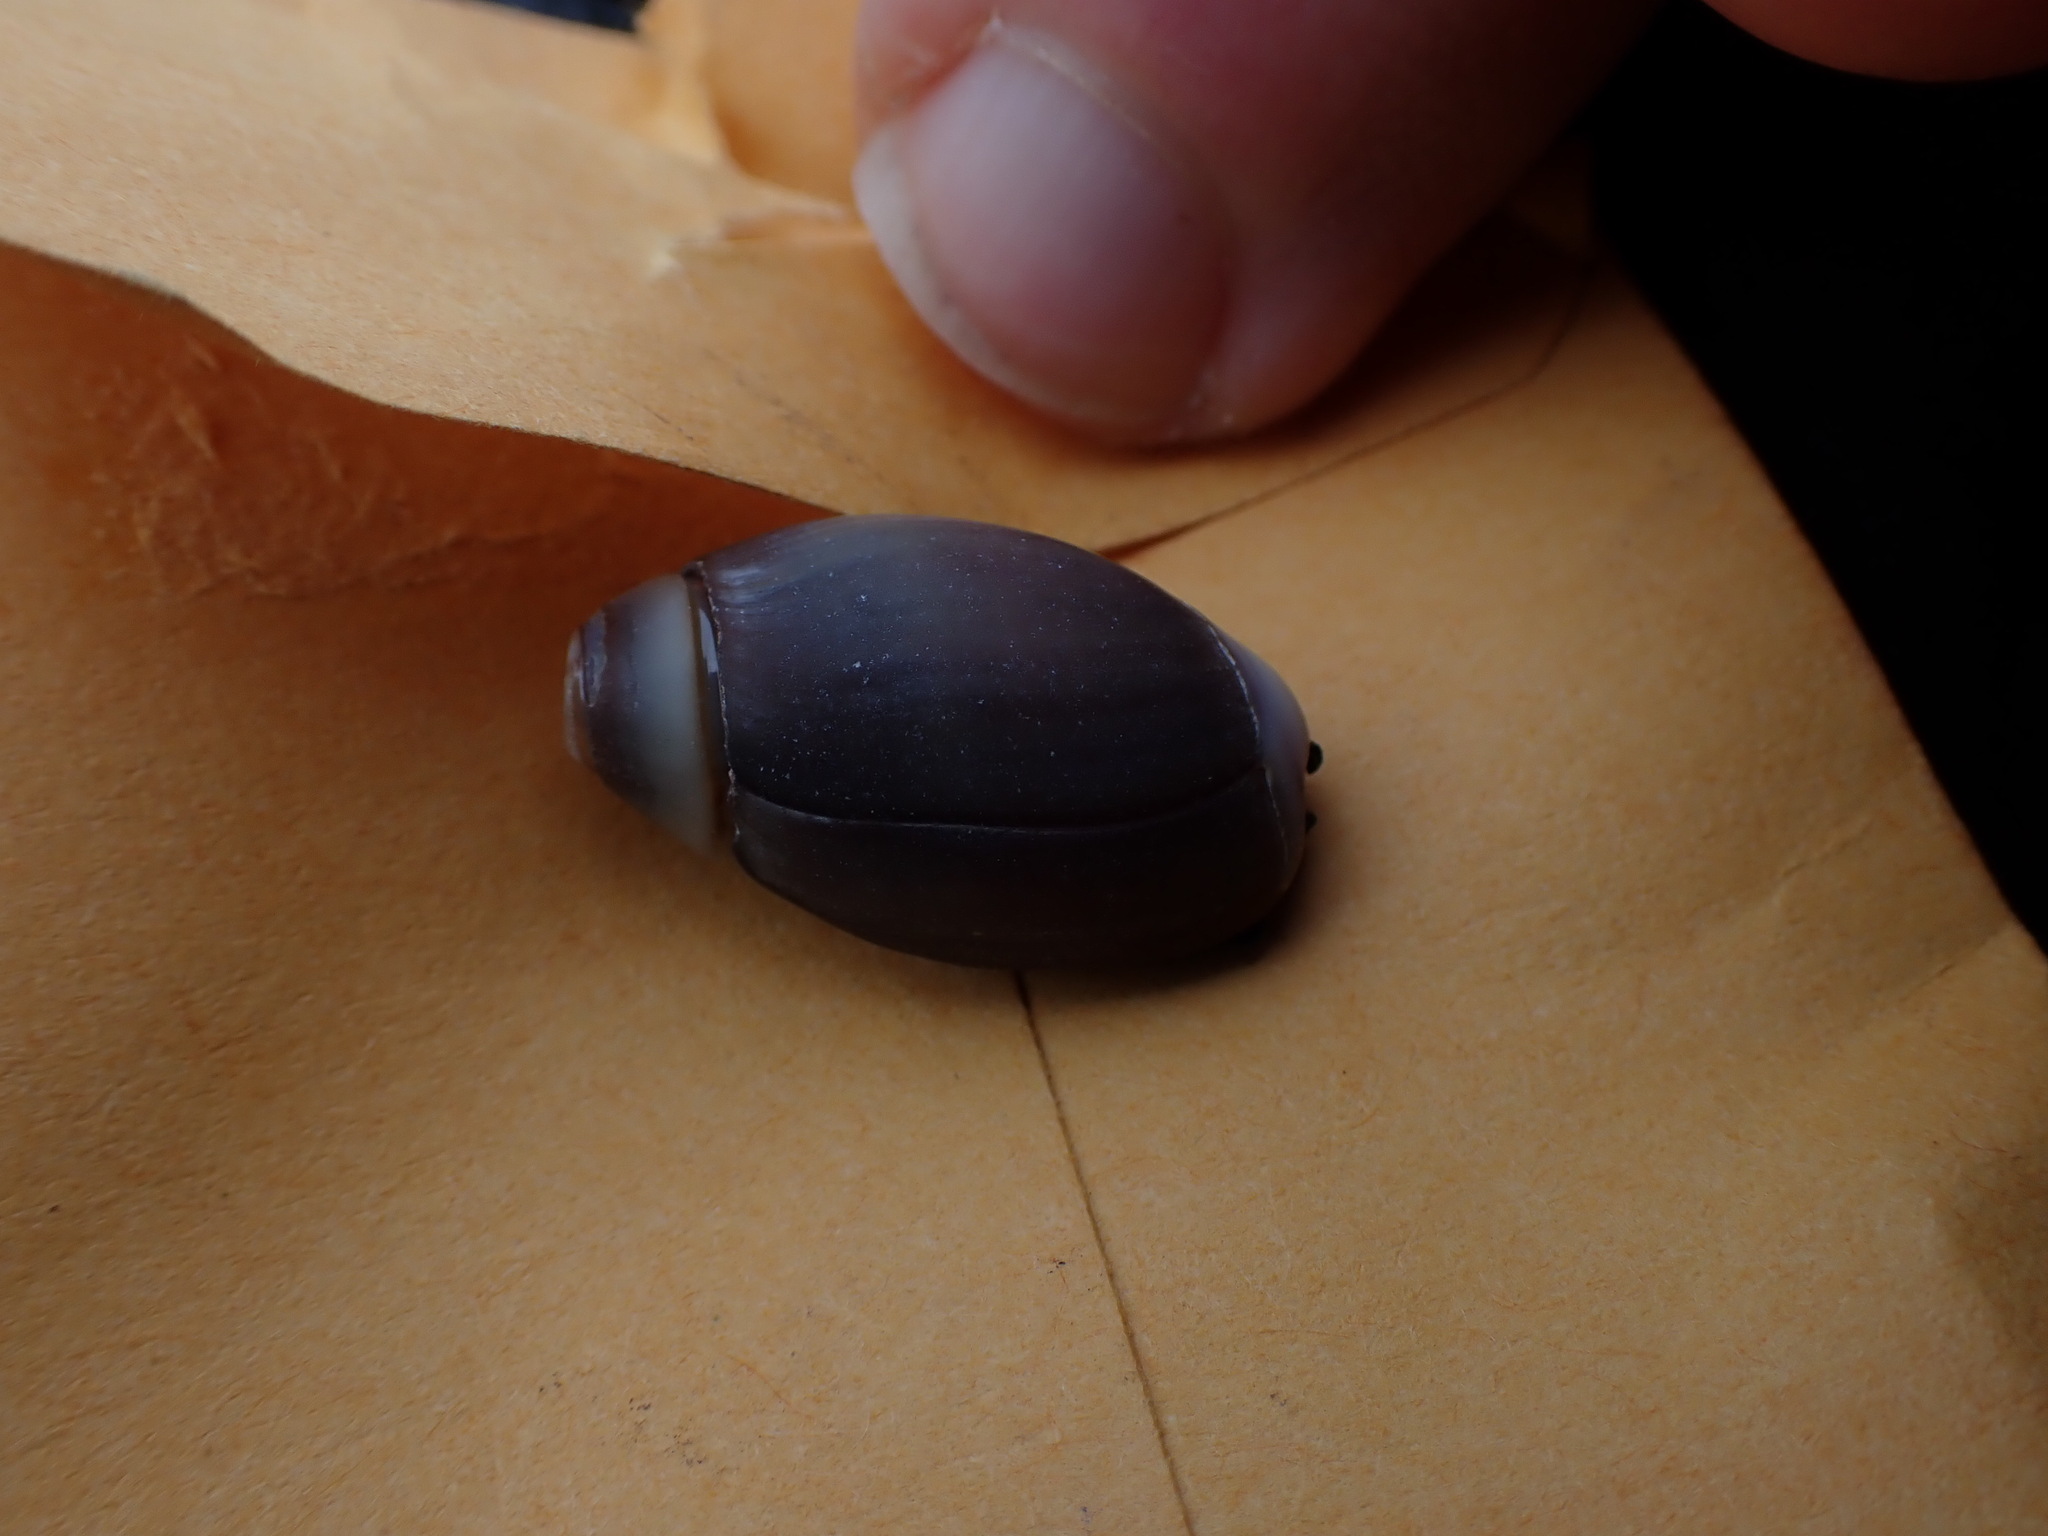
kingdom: Animalia
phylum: Mollusca
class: Gastropoda
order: Neogastropoda
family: Olividae
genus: Callianax
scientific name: Callianax biplicata
